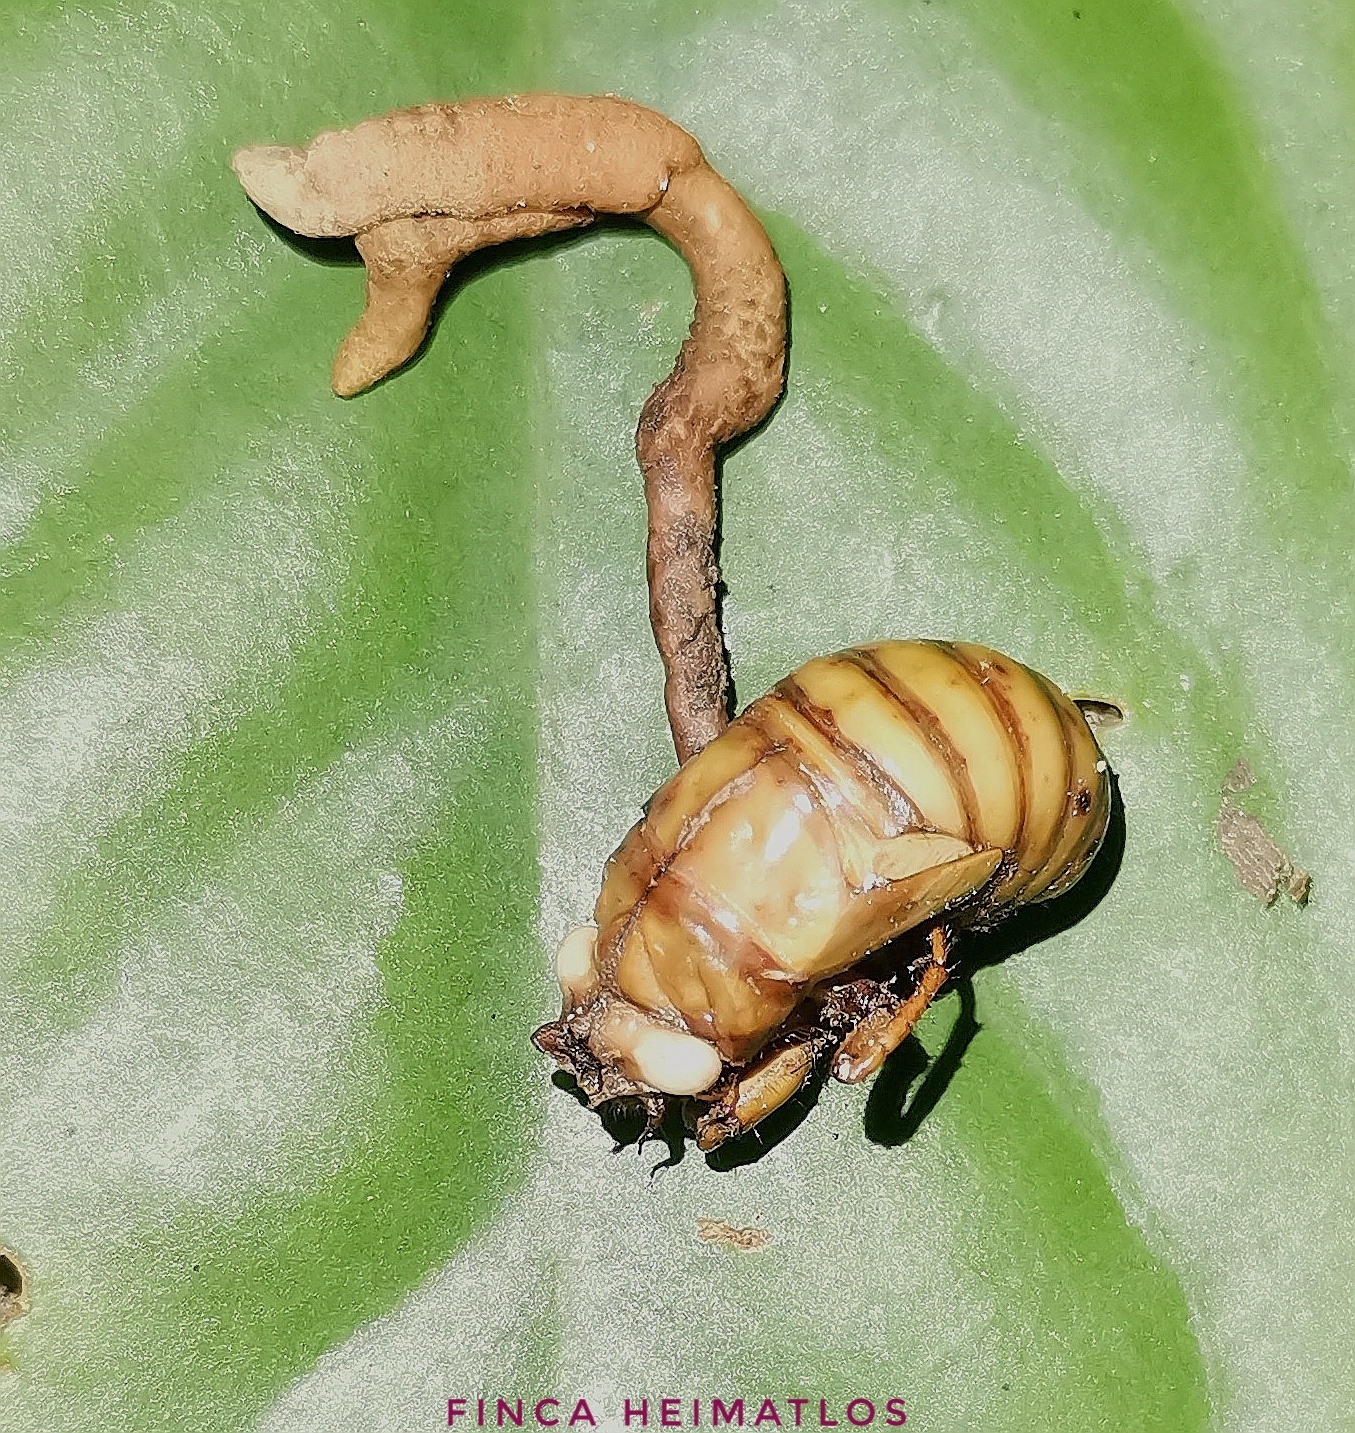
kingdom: Fungi
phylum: Ascomycota
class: Sordariomycetes
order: Hypocreales
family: Ophiocordycipitaceae
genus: Ophiocordyceps
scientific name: Ophiocordyceps araracuarensis
